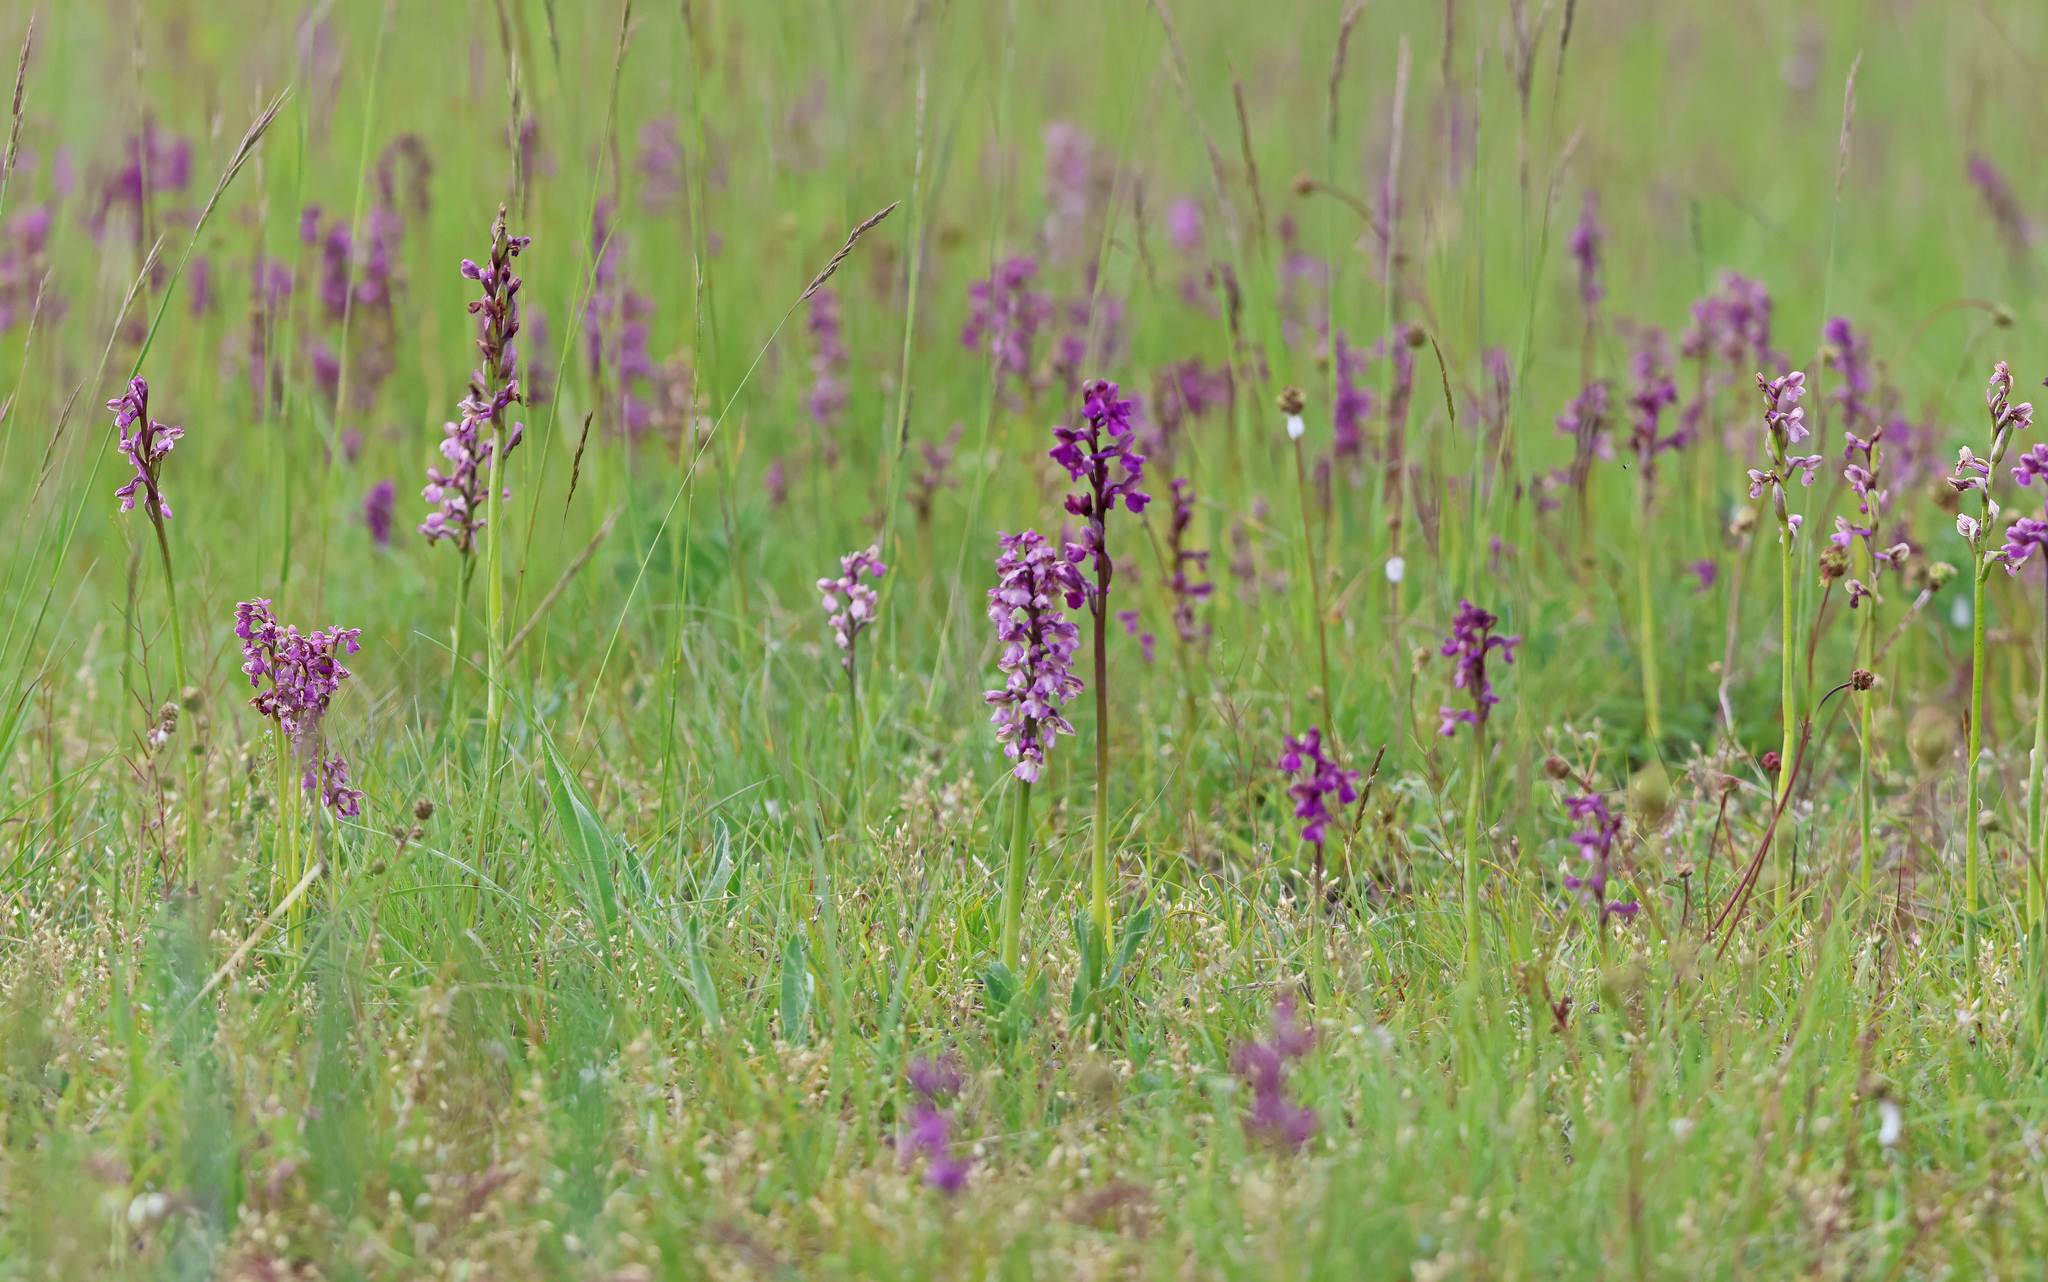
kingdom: Plantae
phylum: Tracheophyta
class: Liliopsida
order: Asparagales
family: Orchidaceae
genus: Anacamptis
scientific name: Anacamptis morio
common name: Green-winged orchid
